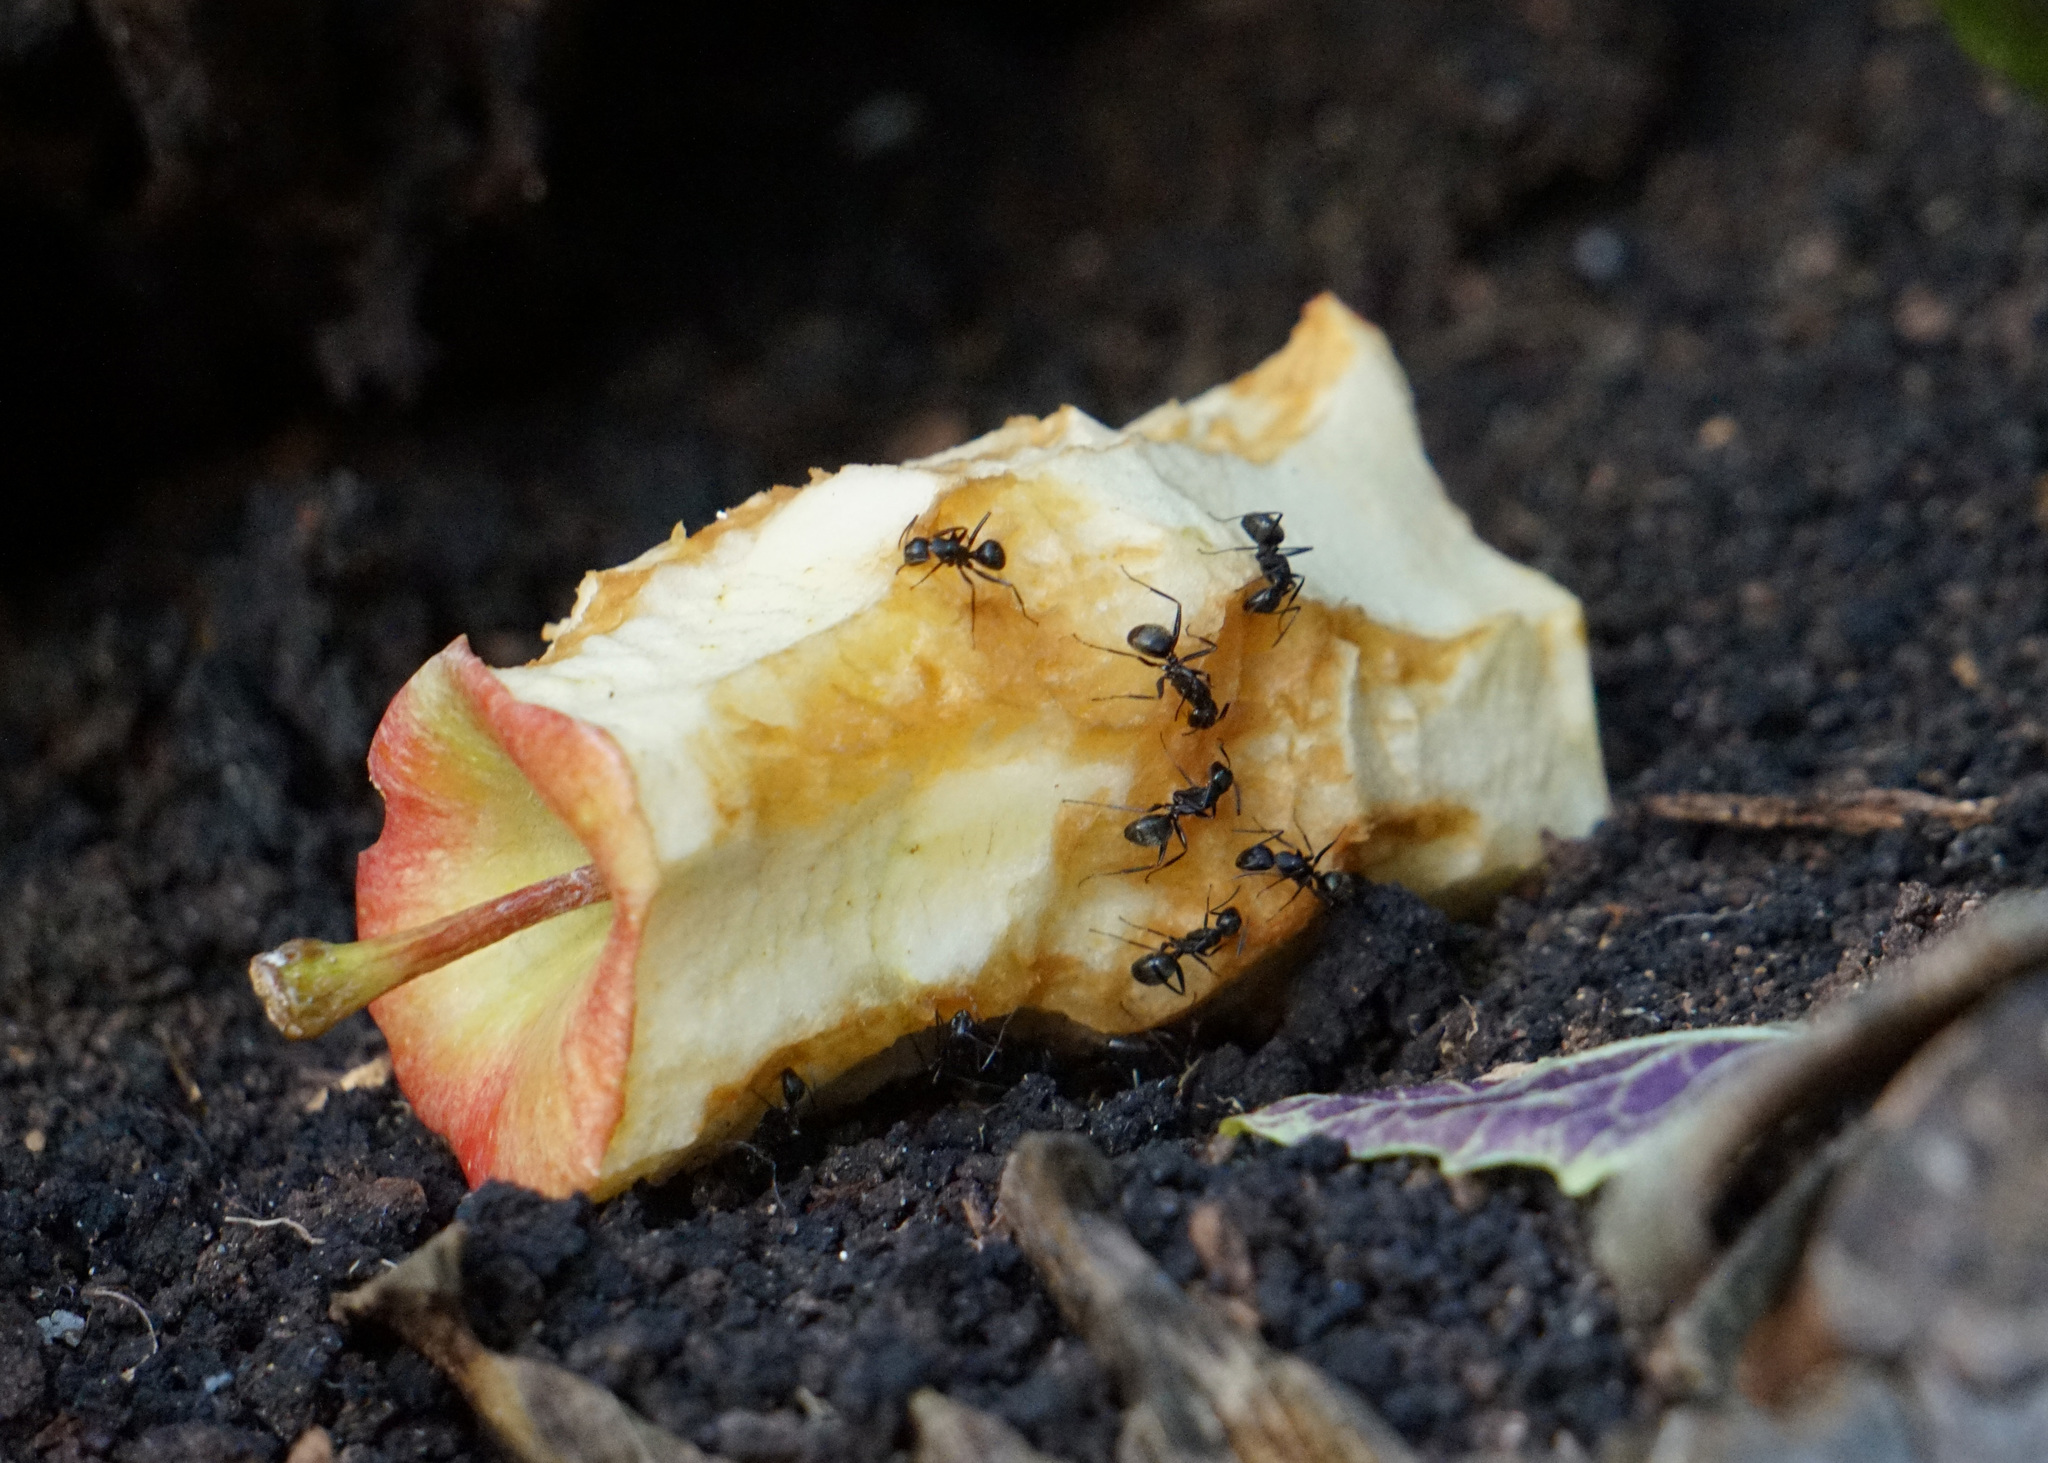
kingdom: Animalia
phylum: Arthropoda
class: Insecta
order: Hymenoptera
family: Formicidae
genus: Camponotus
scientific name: Camponotus pennsylvanicus
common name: Black carpenter ant
